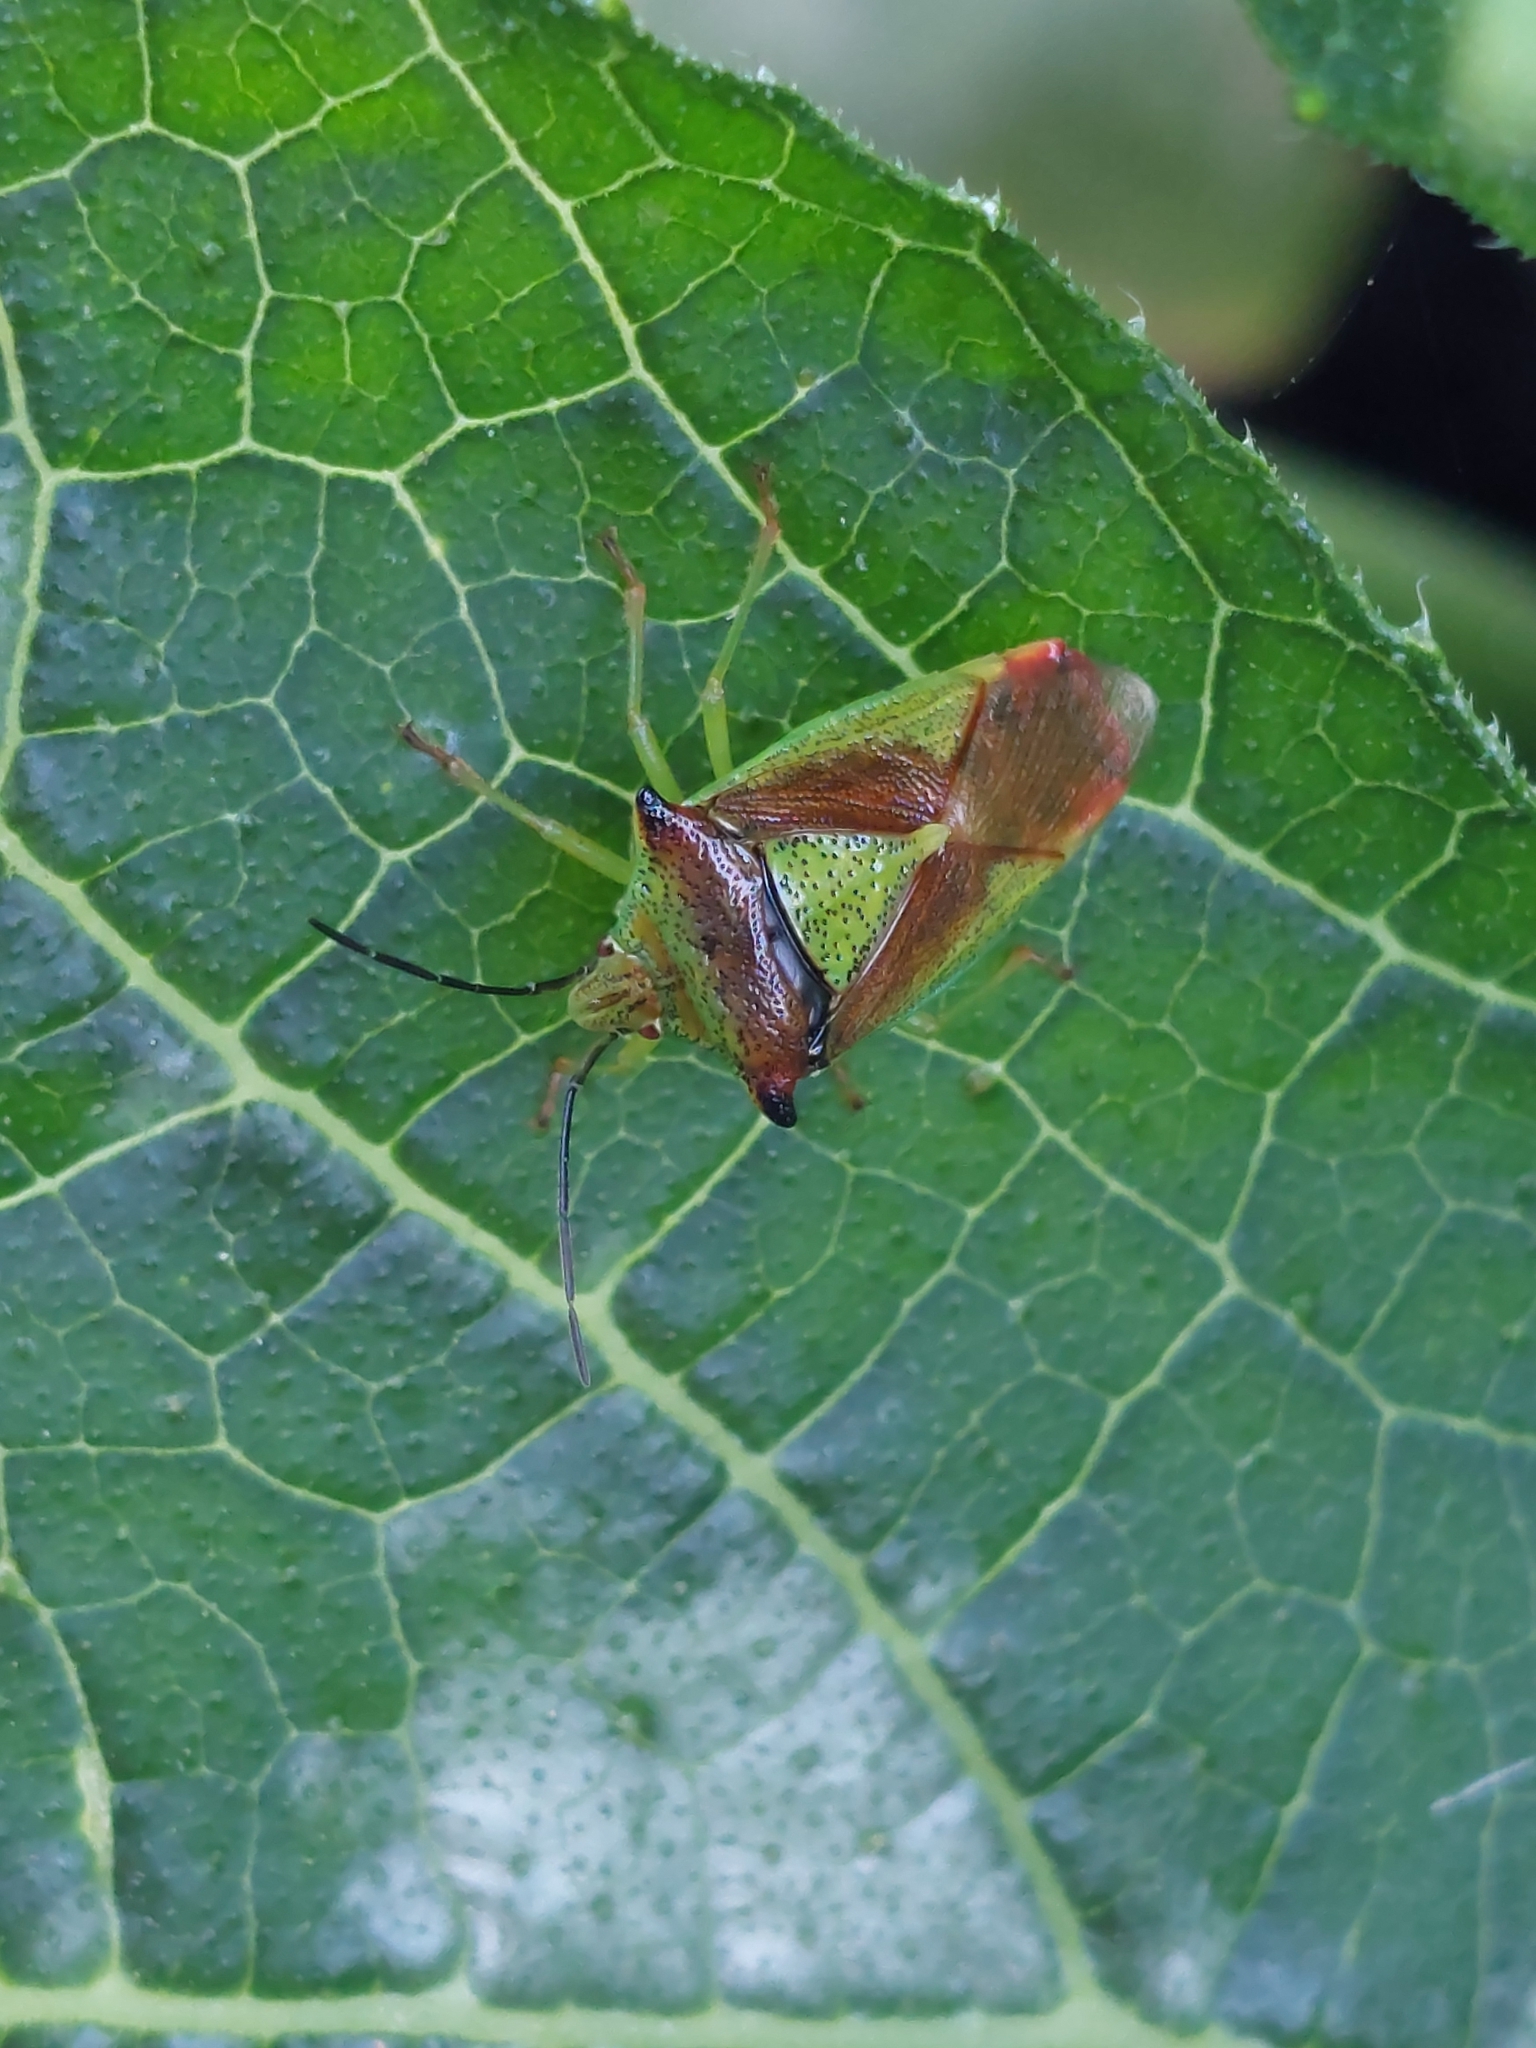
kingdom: Animalia
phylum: Arthropoda
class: Insecta
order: Hemiptera
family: Acanthosomatidae
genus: Acanthosoma
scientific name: Acanthosoma haemorrhoidale
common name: Hawthorn shieldbug
